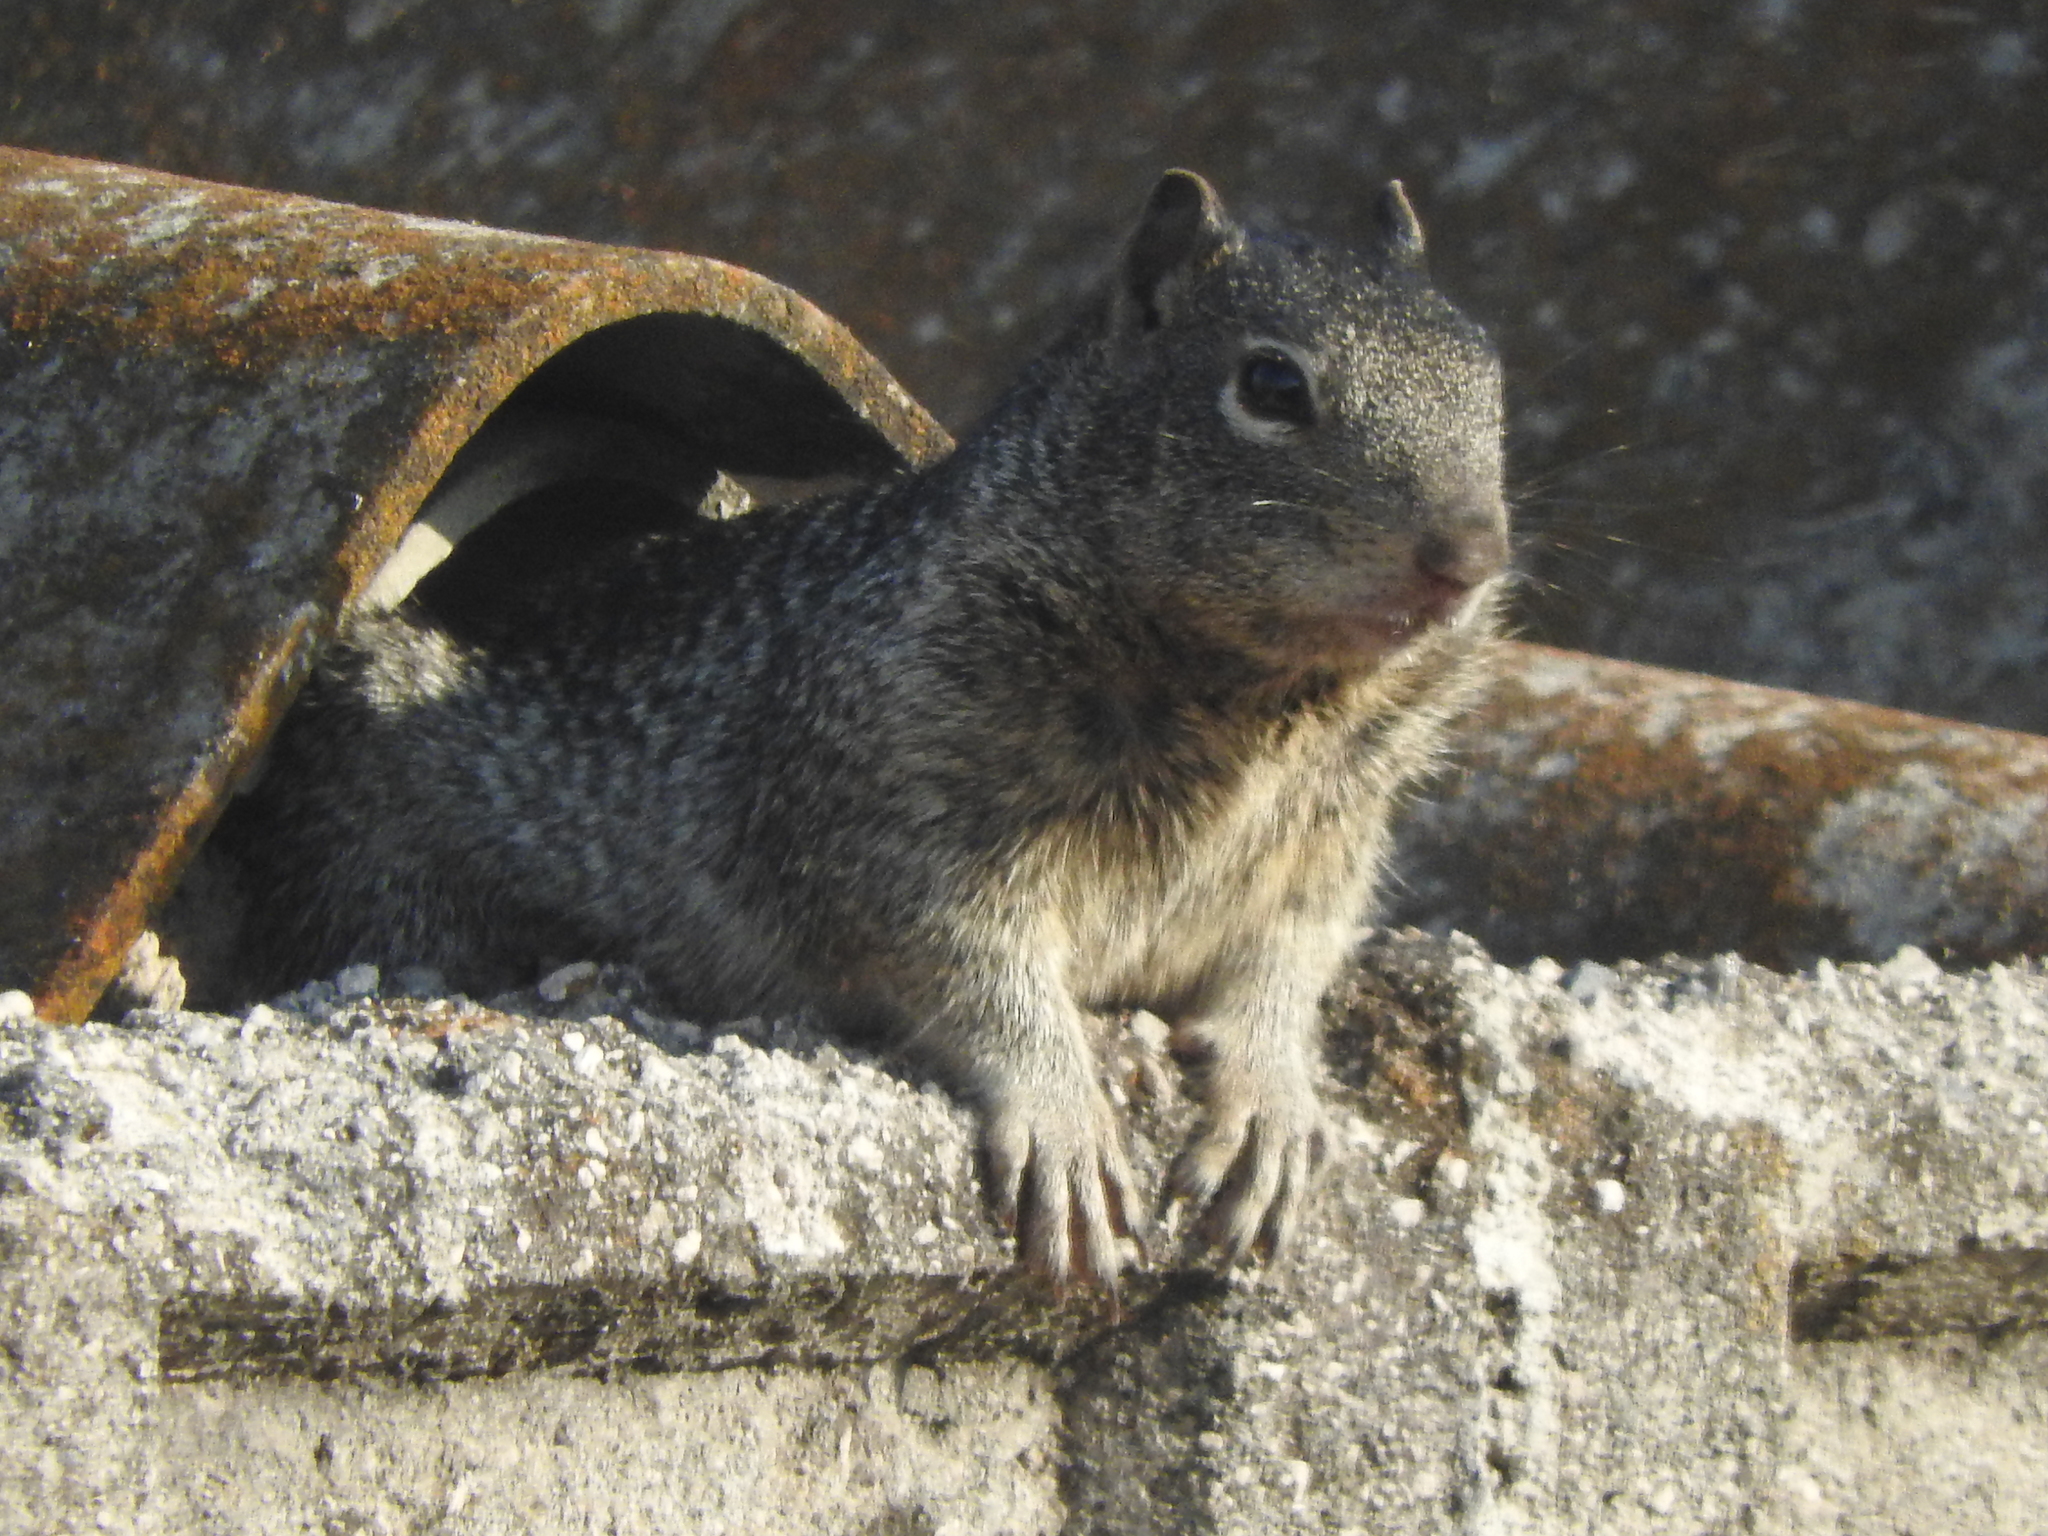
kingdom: Animalia
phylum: Chordata
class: Mammalia
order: Rodentia
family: Sciuridae
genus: Otospermophilus
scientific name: Otospermophilus variegatus
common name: Rock squirrel
